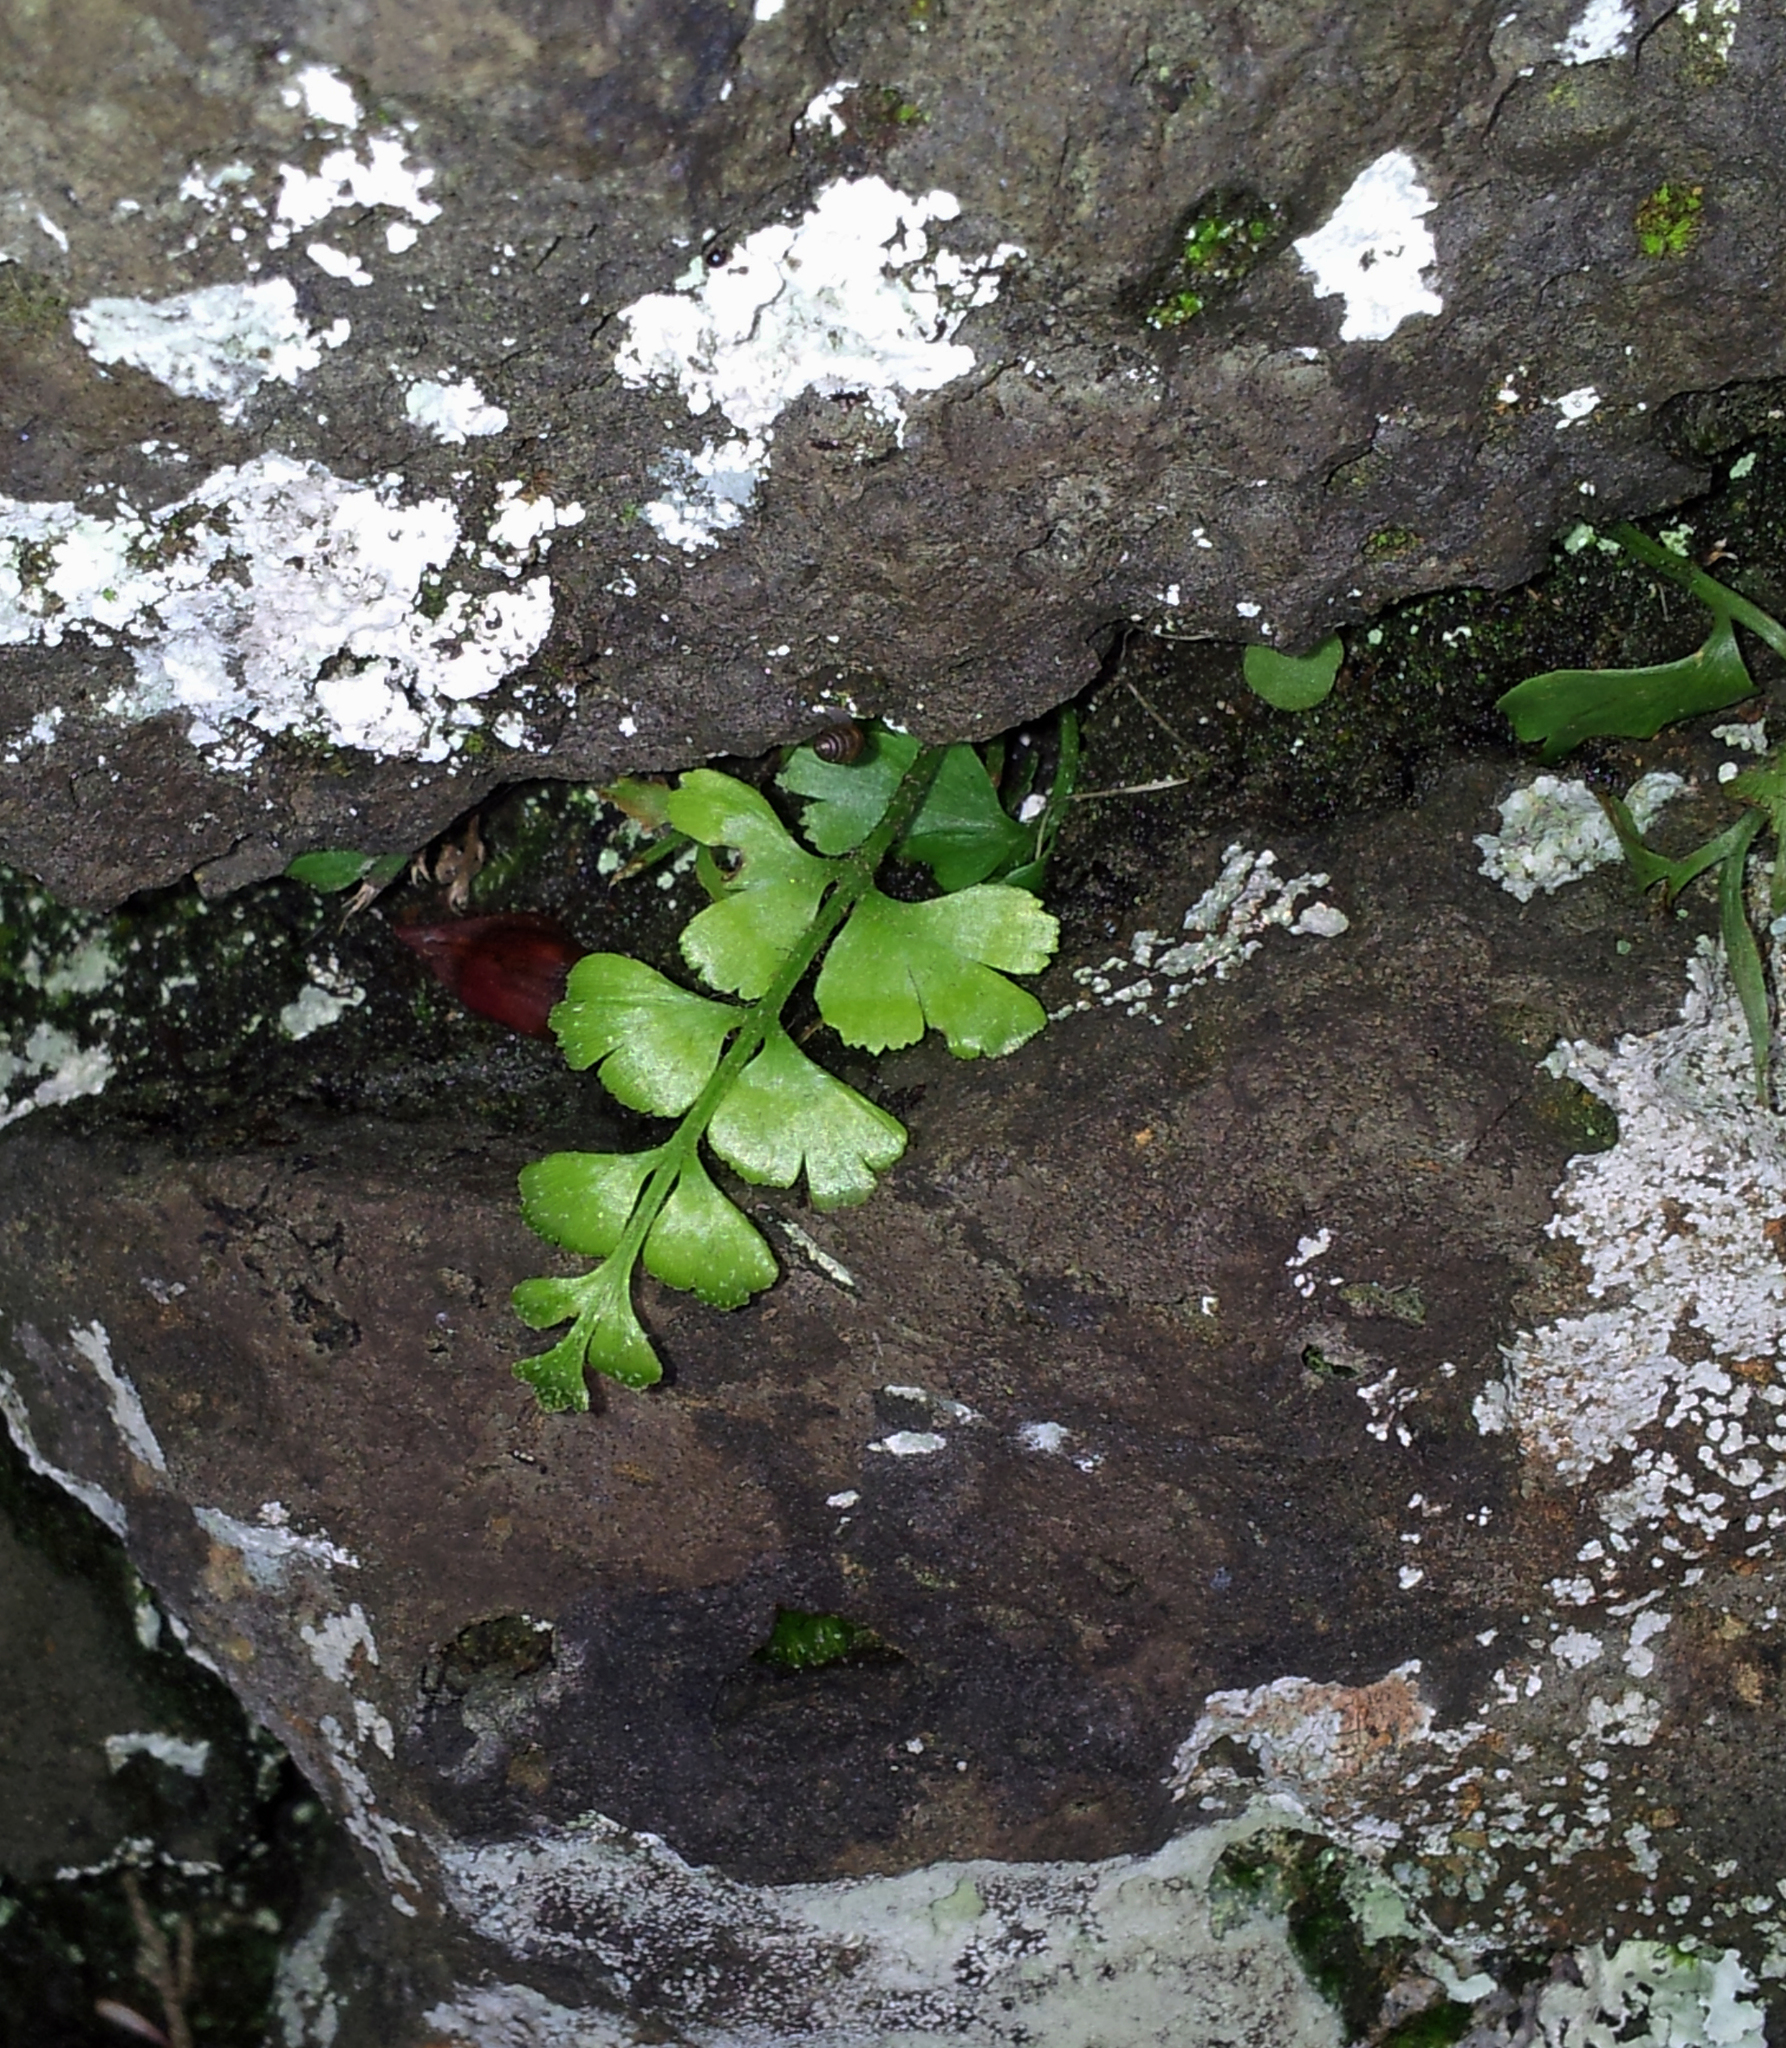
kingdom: Plantae
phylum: Tracheophyta
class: Polypodiopsida
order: Polypodiales
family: Aspleniaceae
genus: Asplenium
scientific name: Asplenium aethiopicum
